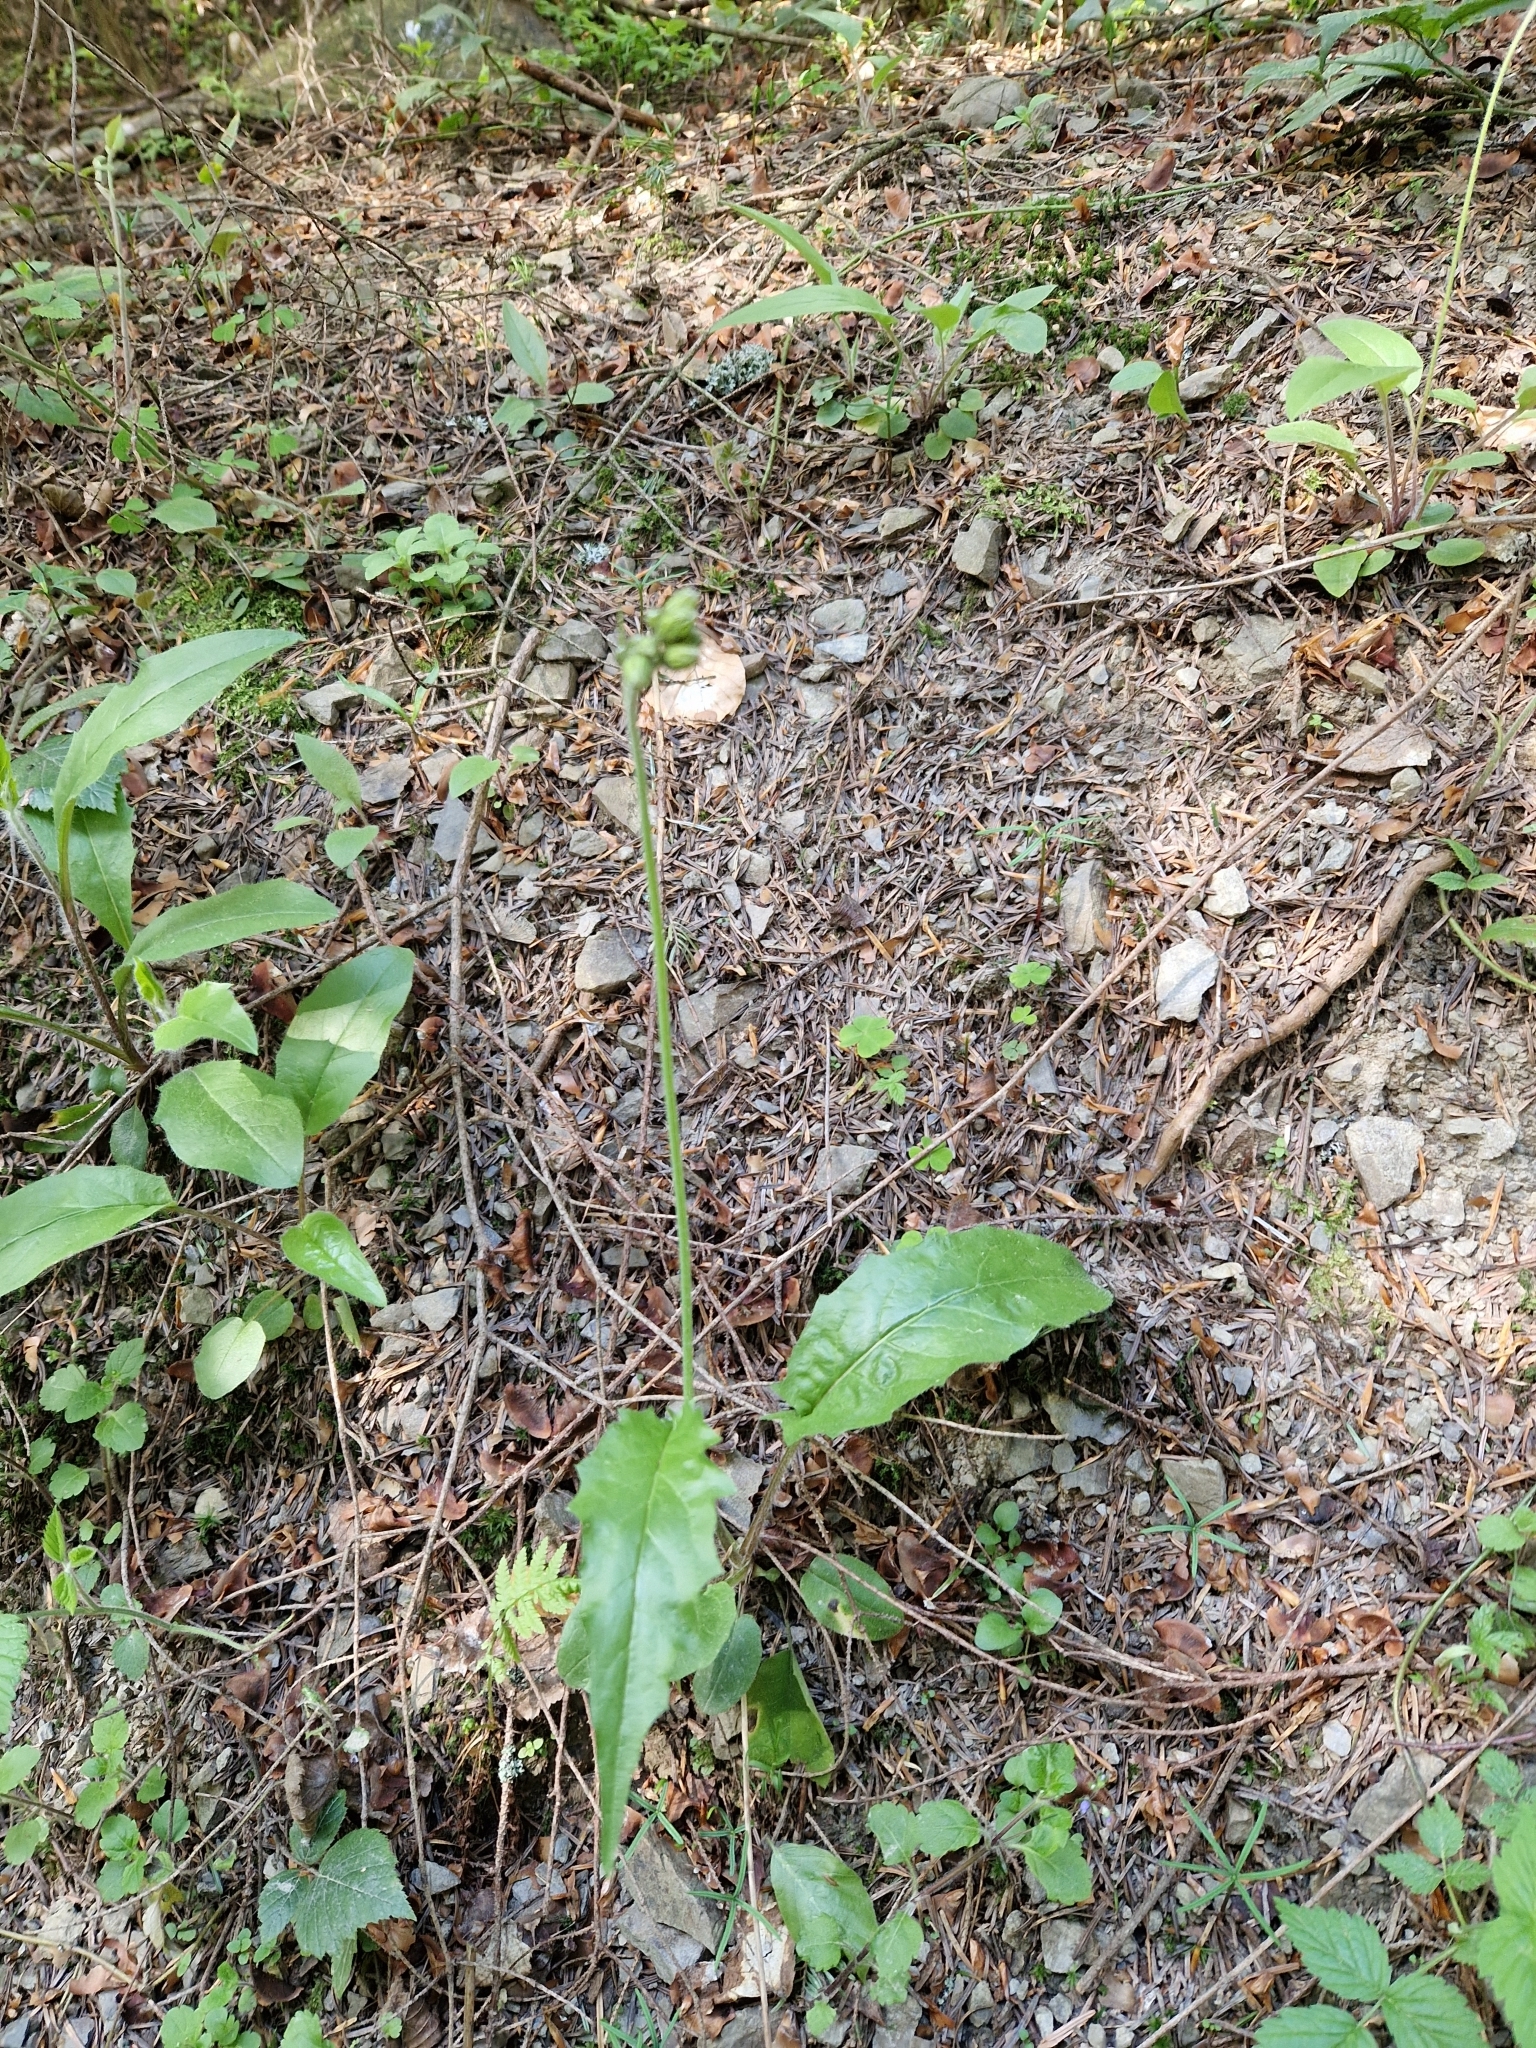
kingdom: Plantae
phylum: Tracheophyta
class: Magnoliopsida
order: Asterales
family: Asteraceae
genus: Hieracium
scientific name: Hieracium murorum
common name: Wall hawkweed
